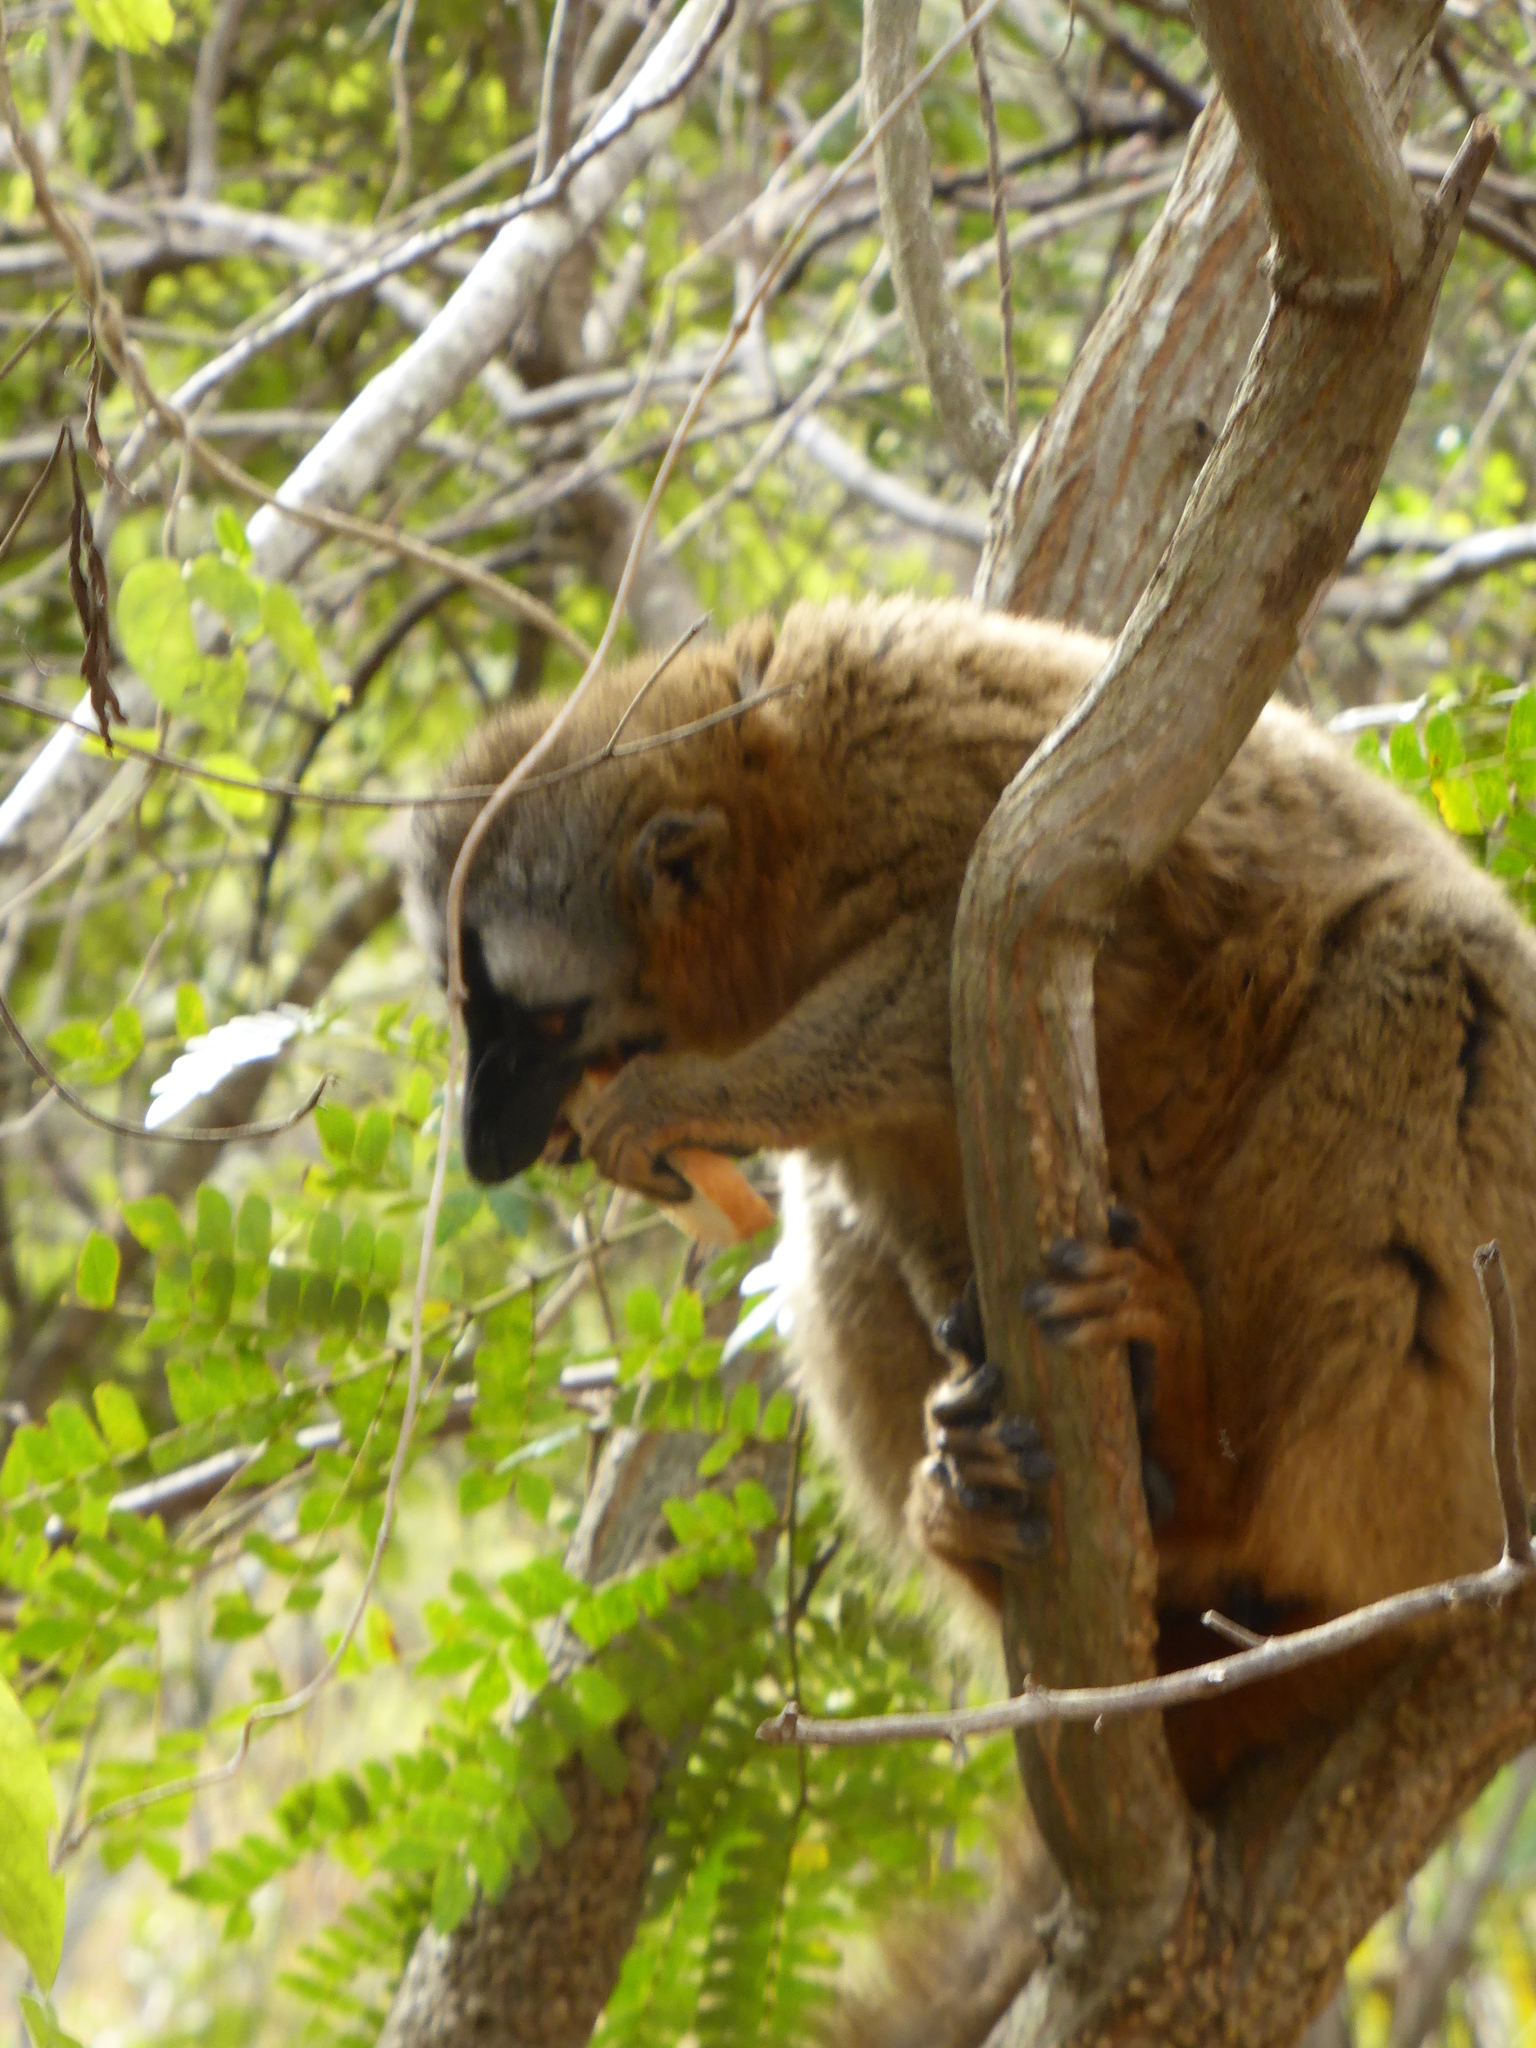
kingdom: Animalia
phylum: Chordata
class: Mammalia
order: Primates
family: Lemuridae
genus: Eulemur
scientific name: Eulemur rufifrons
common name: Red-fronted brown lemur
